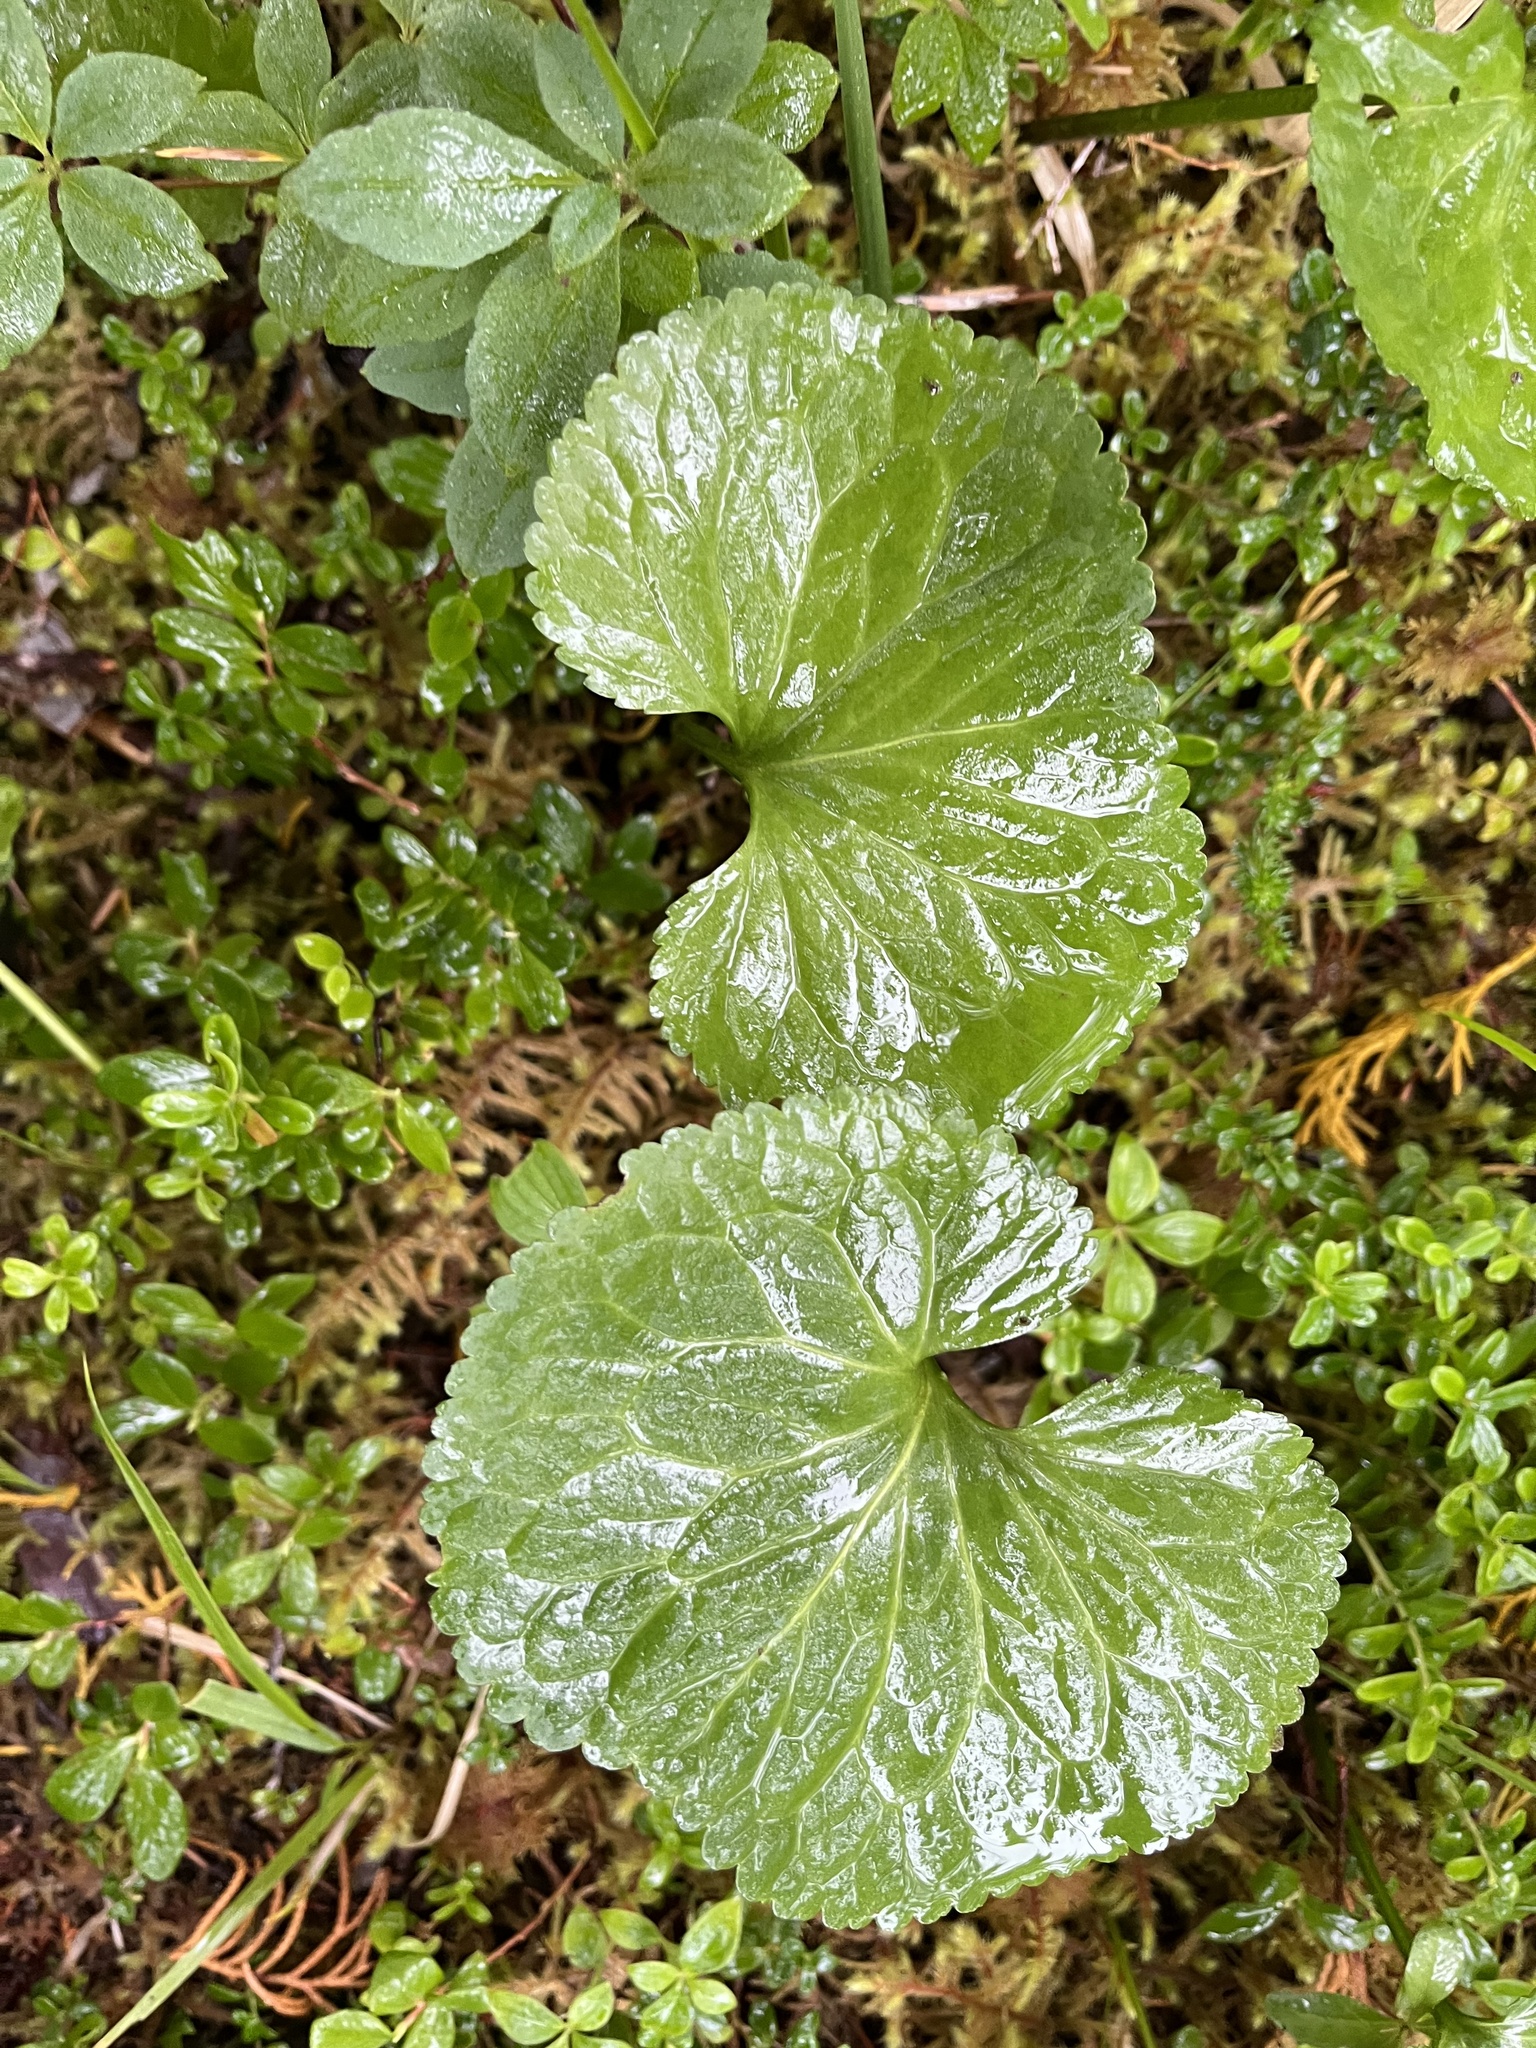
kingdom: Plantae
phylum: Tracheophyta
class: Magnoliopsida
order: Asterales
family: Menyanthaceae
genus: Nephrophyllidium
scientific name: Nephrophyllidium crista-galli
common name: Deer-cabbage
